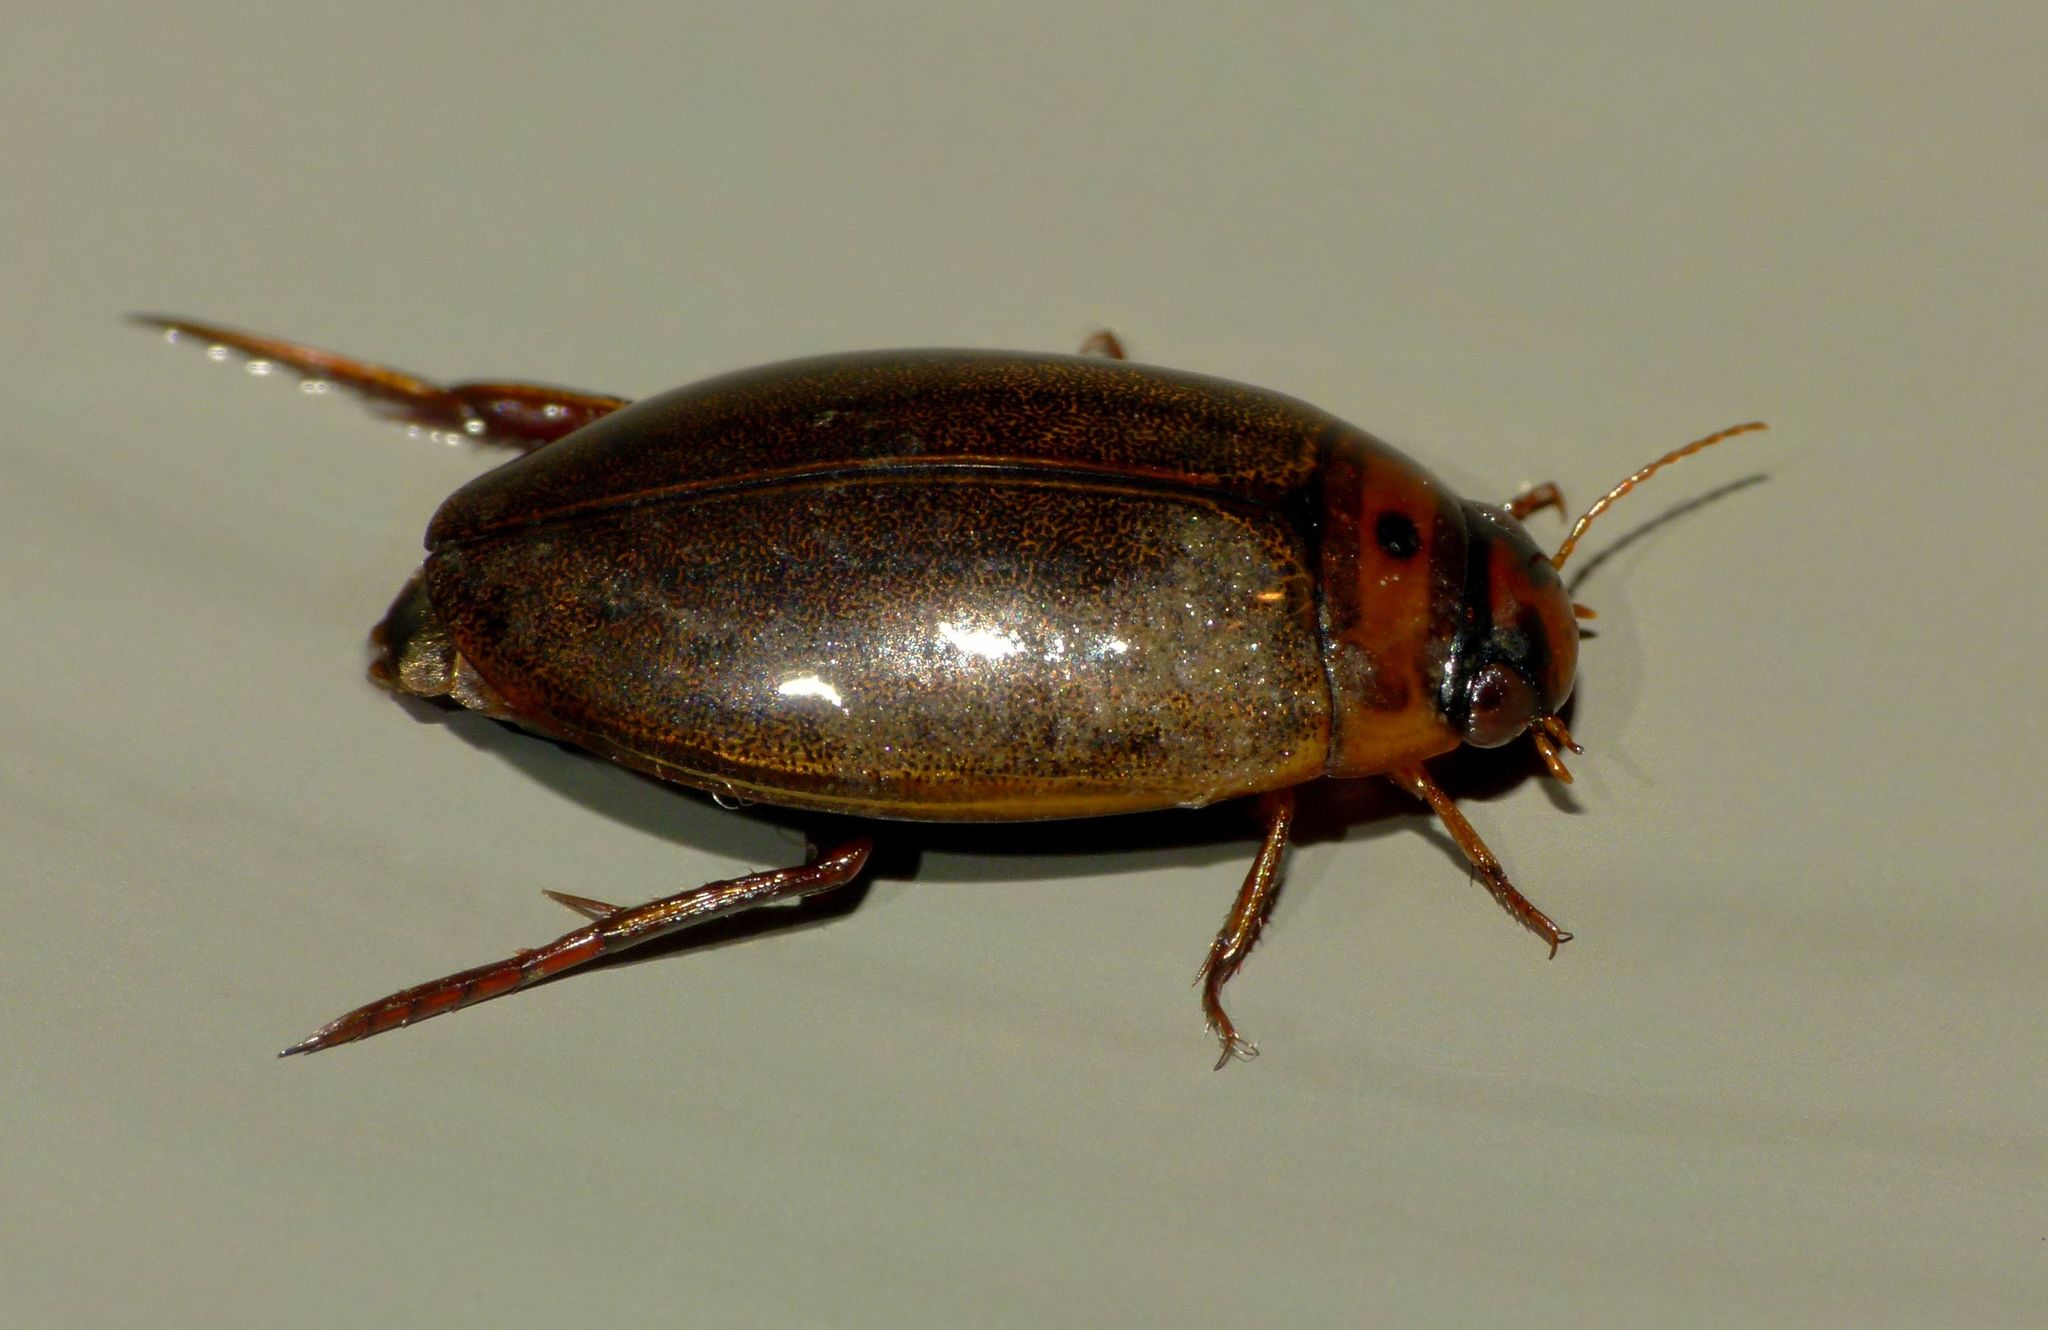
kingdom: Animalia
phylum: Arthropoda
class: Insecta
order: Coleoptera
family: Dytiscidae
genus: Rhantus
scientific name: Rhantus suturalis
